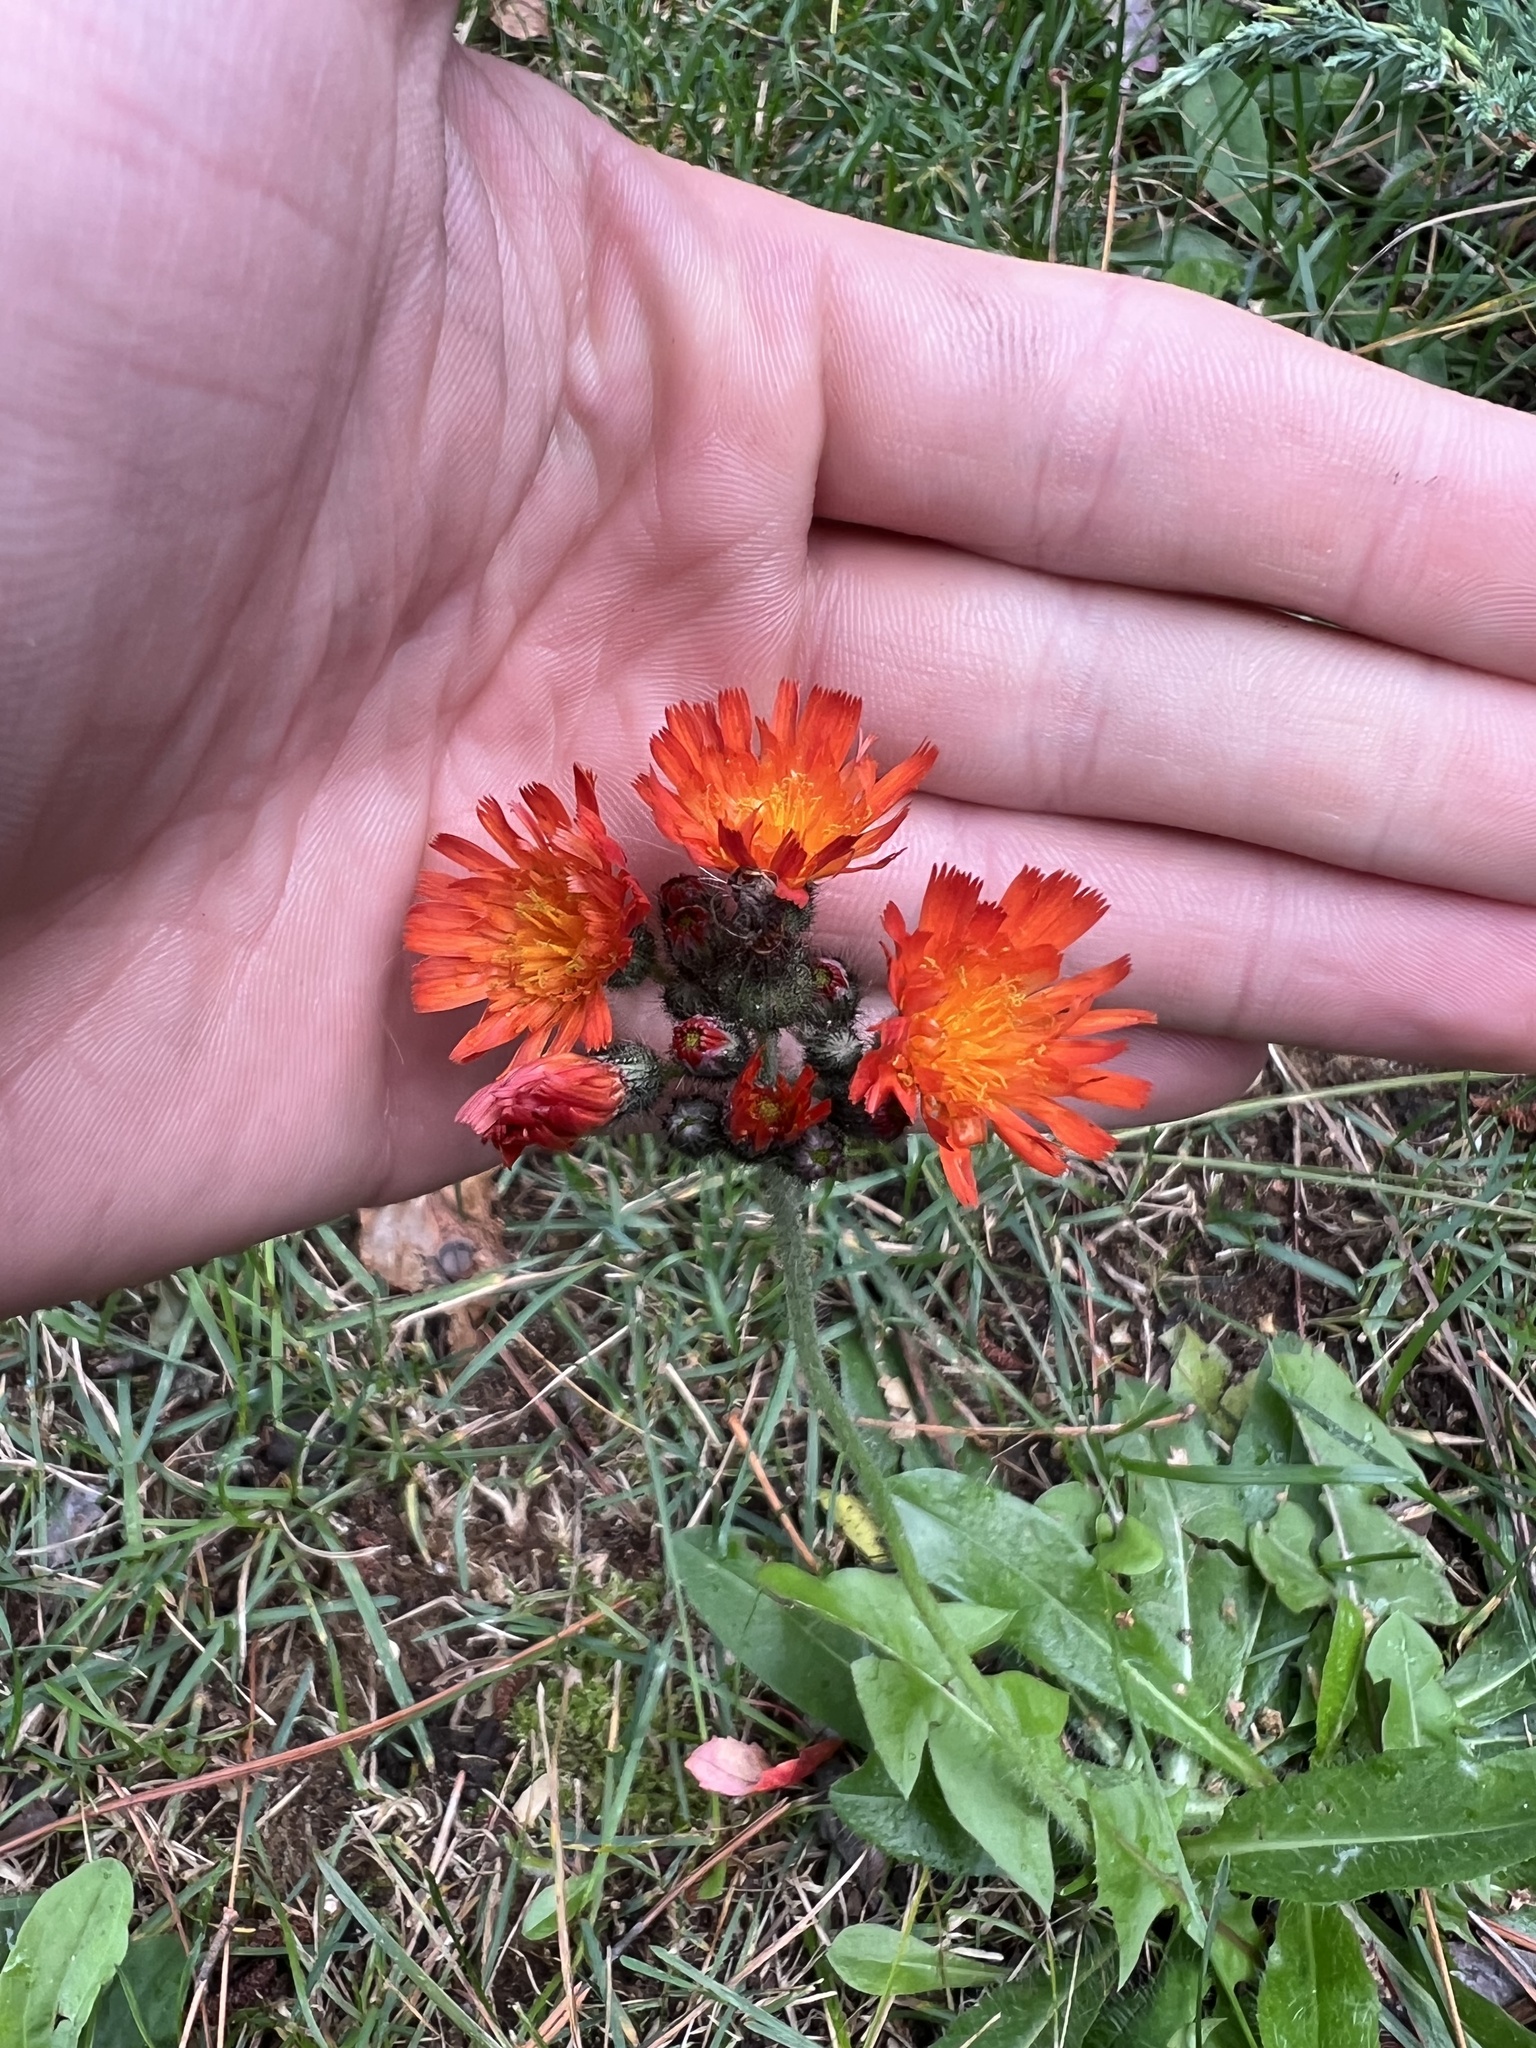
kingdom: Plantae
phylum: Tracheophyta
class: Magnoliopsida
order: Asterales
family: Asteraceae
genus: Pilosella
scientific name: Pilosella aurantiaca
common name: Fox-and-cubs
